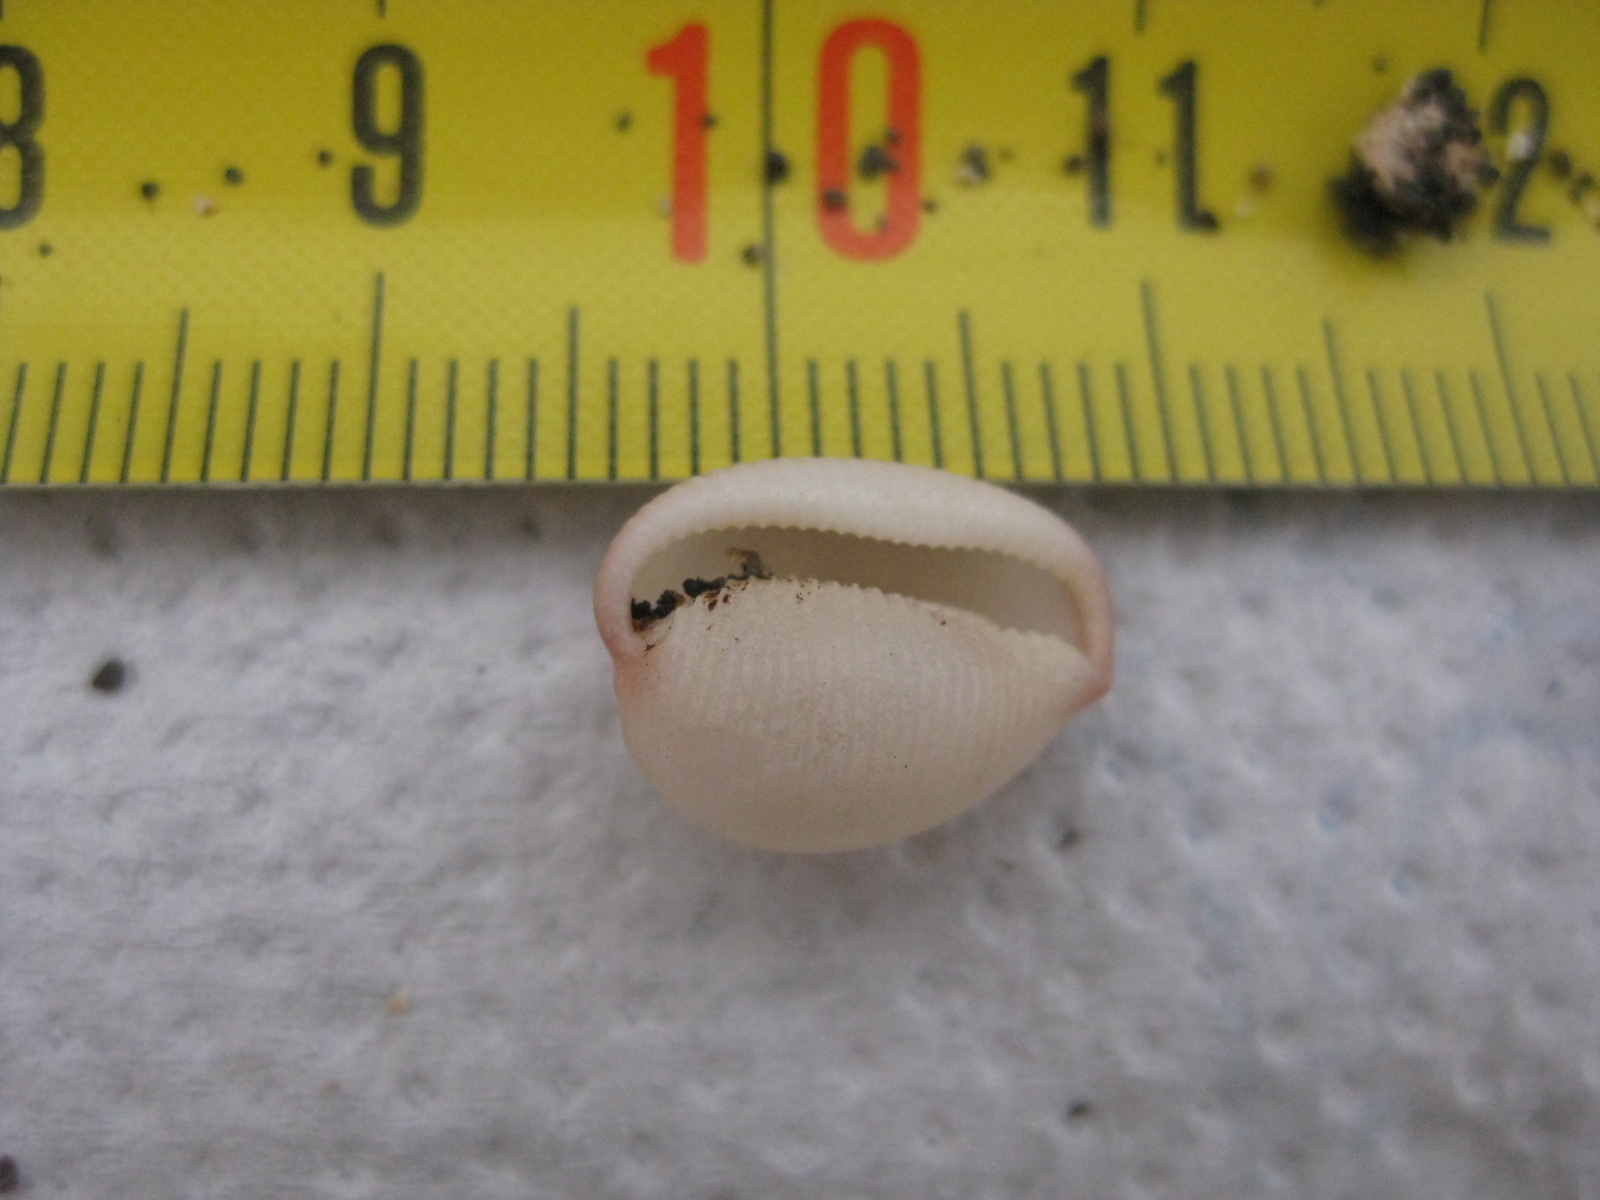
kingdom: Animalia
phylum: Mollusca
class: Gastropoda
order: Littorinimorpha
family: Triviidae
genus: Ellatrivia
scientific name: Ellatrivia merces
